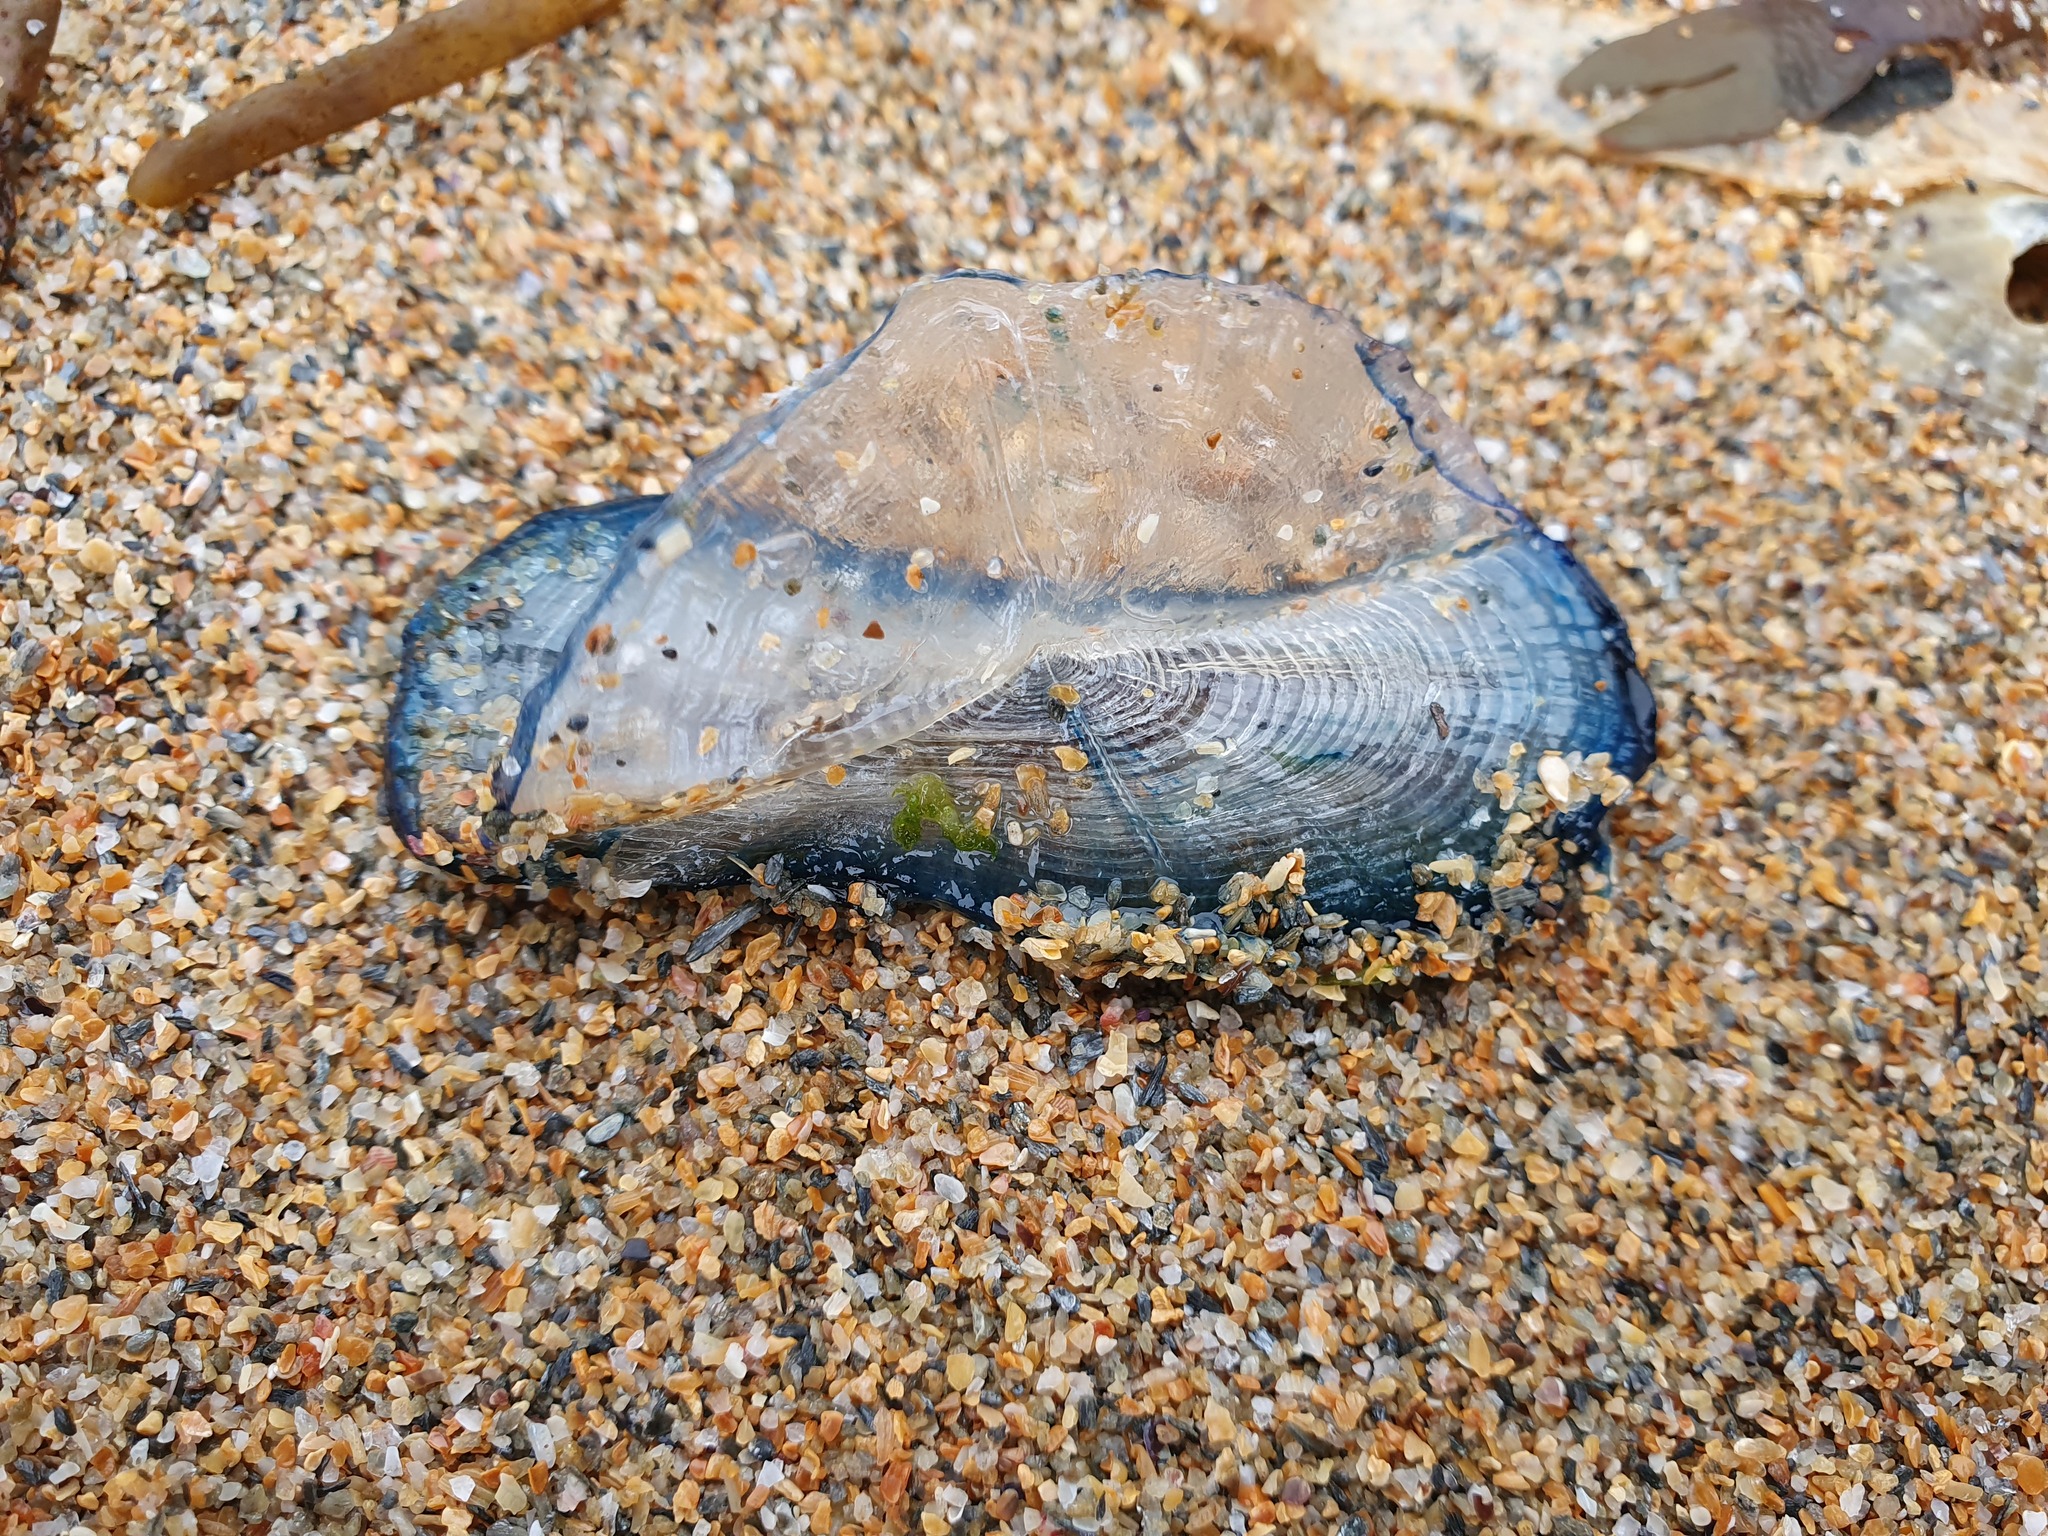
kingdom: Animalia
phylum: Cnidaria
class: Hydrozoa
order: Anthoathecata
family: Porpitidae
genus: Velella
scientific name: Velella velella
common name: By-the-wind-sailor
